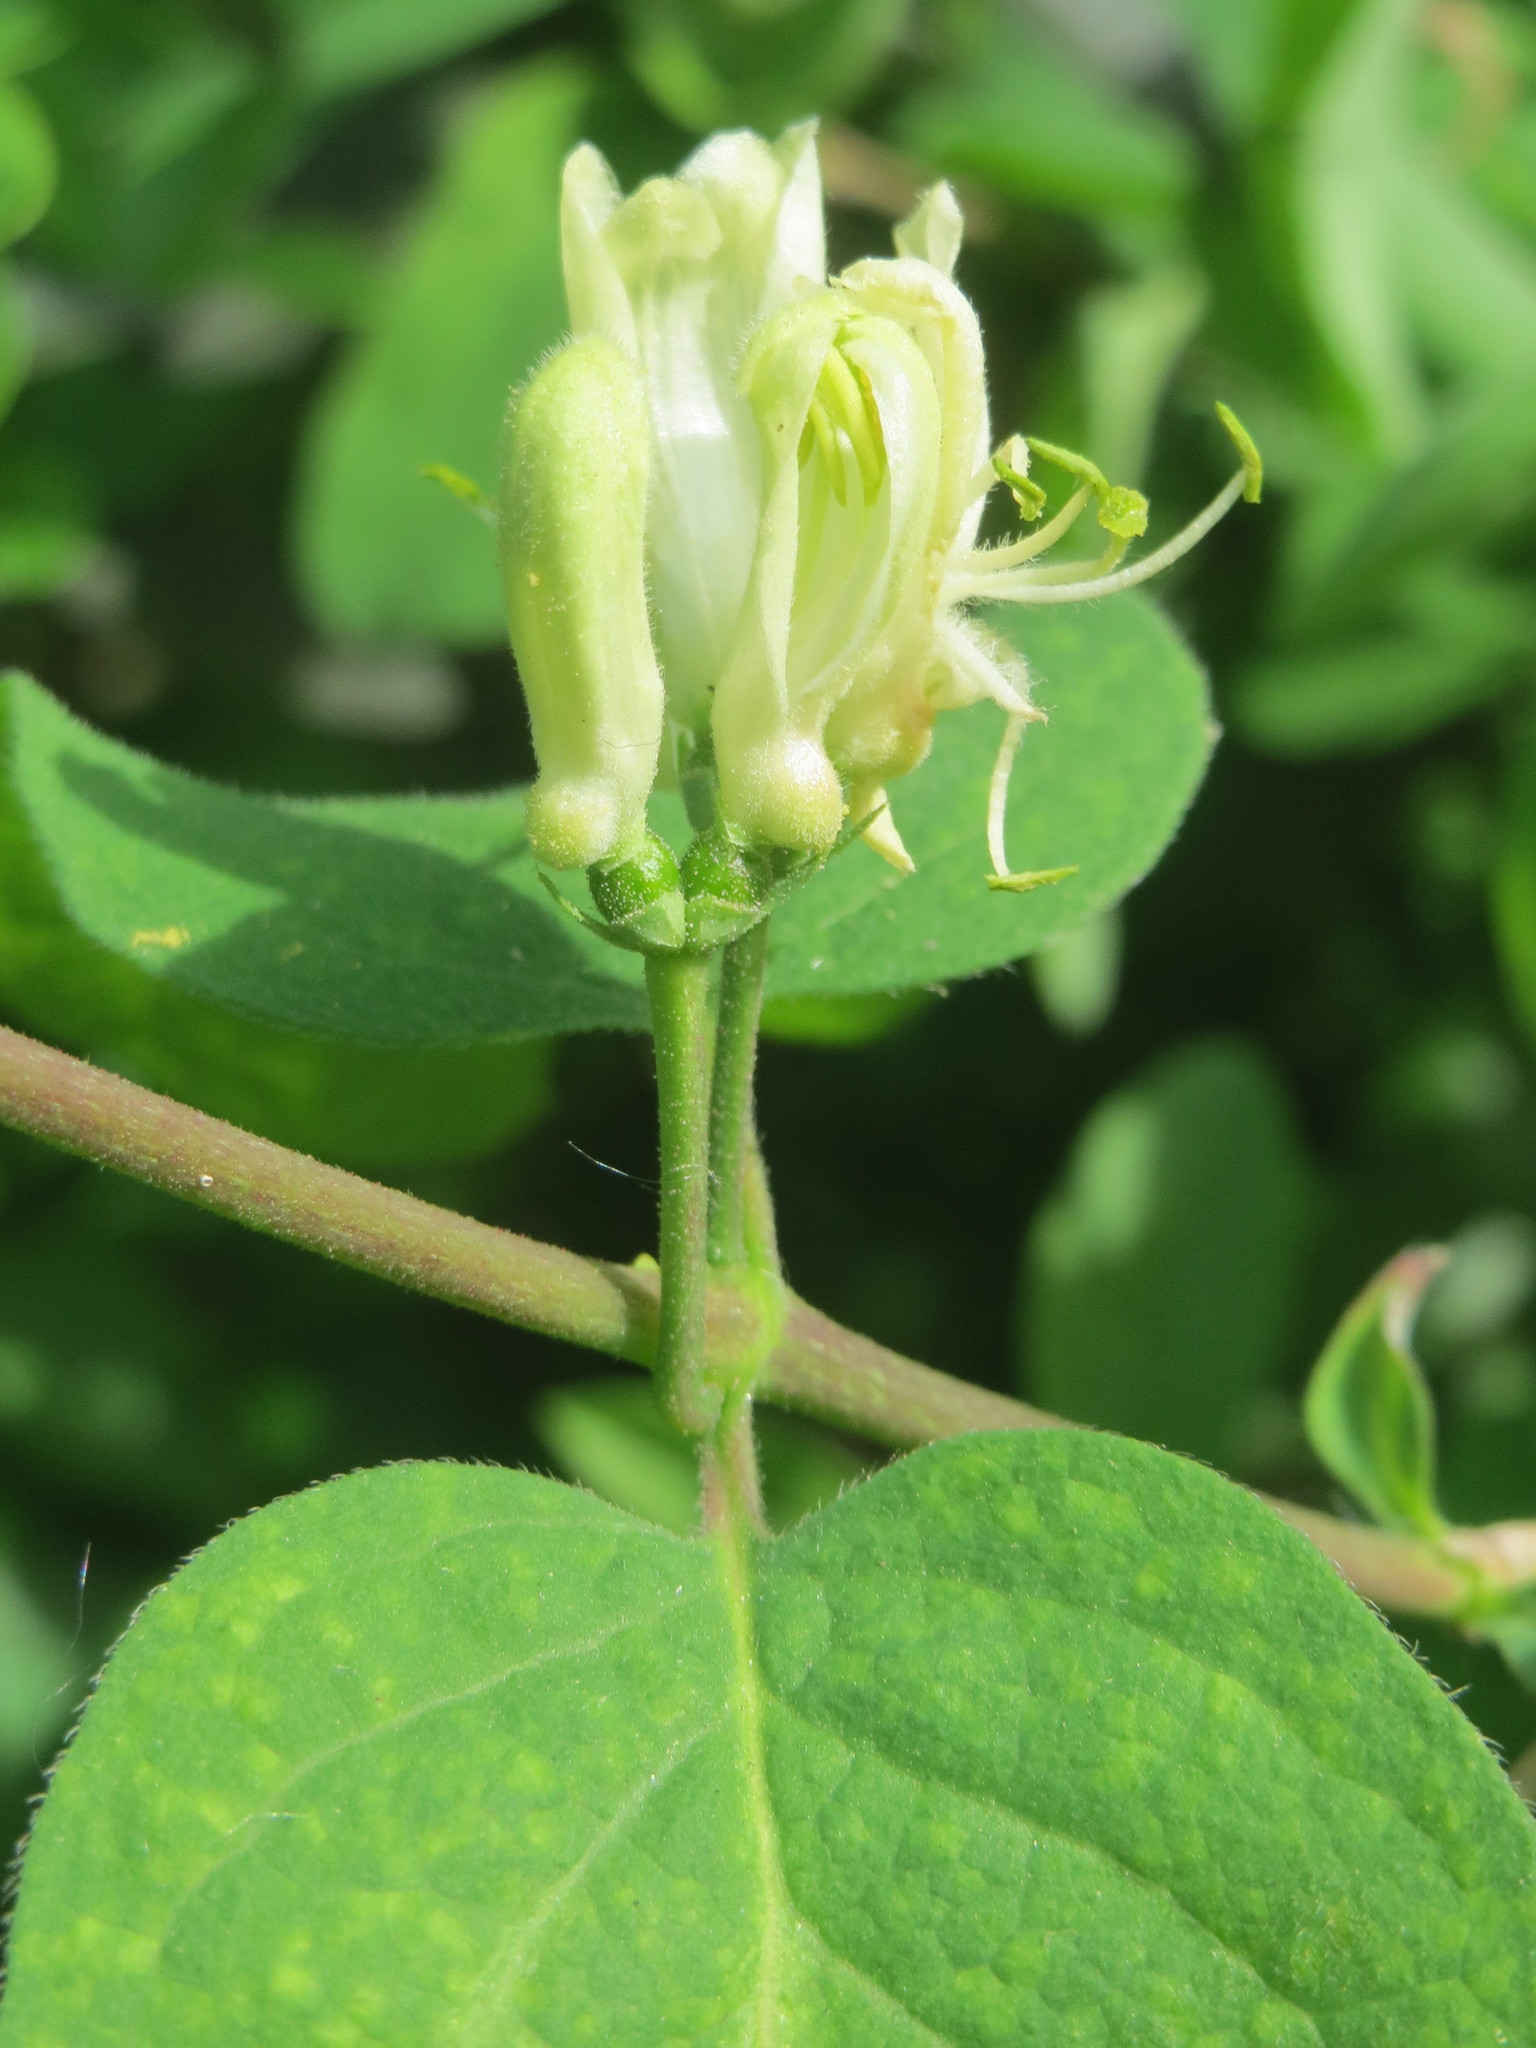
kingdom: Plantae
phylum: Tracheophyta
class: Magnoliopsida
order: Dipsacales
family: Caprifoliaceae
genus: Lonicera
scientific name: Lonicera xylosteum
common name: Fly honeysuckle
